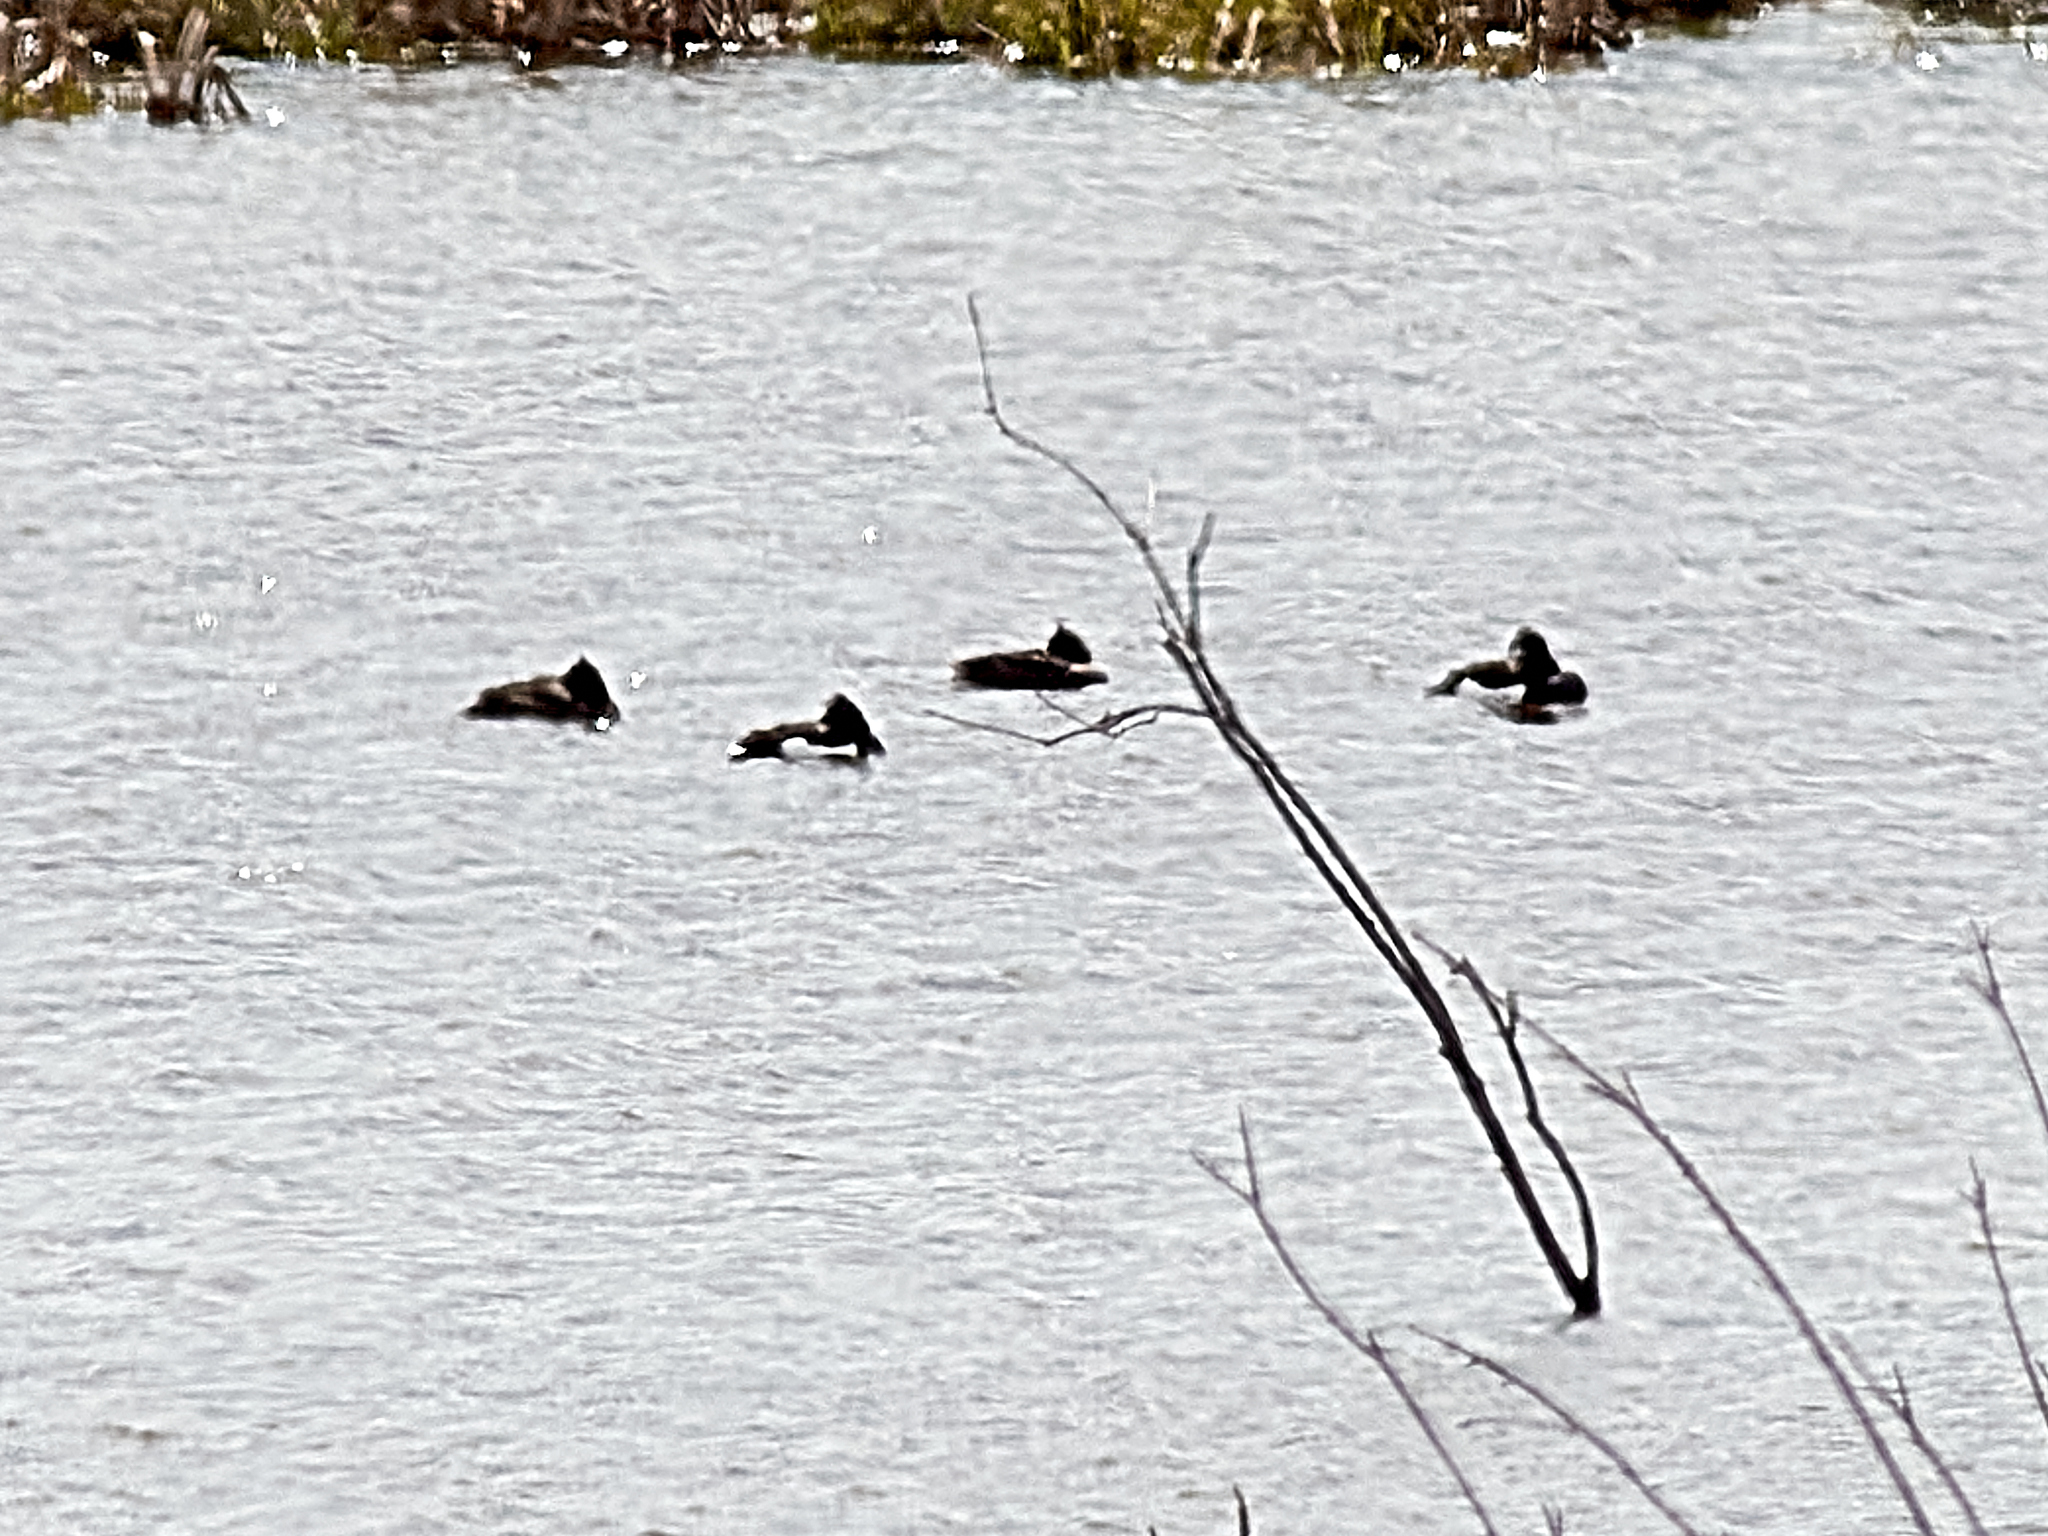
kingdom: Animalia
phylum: Chordata
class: Aves
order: Anseriformes
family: Anatidae
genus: Aythya
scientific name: Aythya fuligula
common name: Tufted duck
